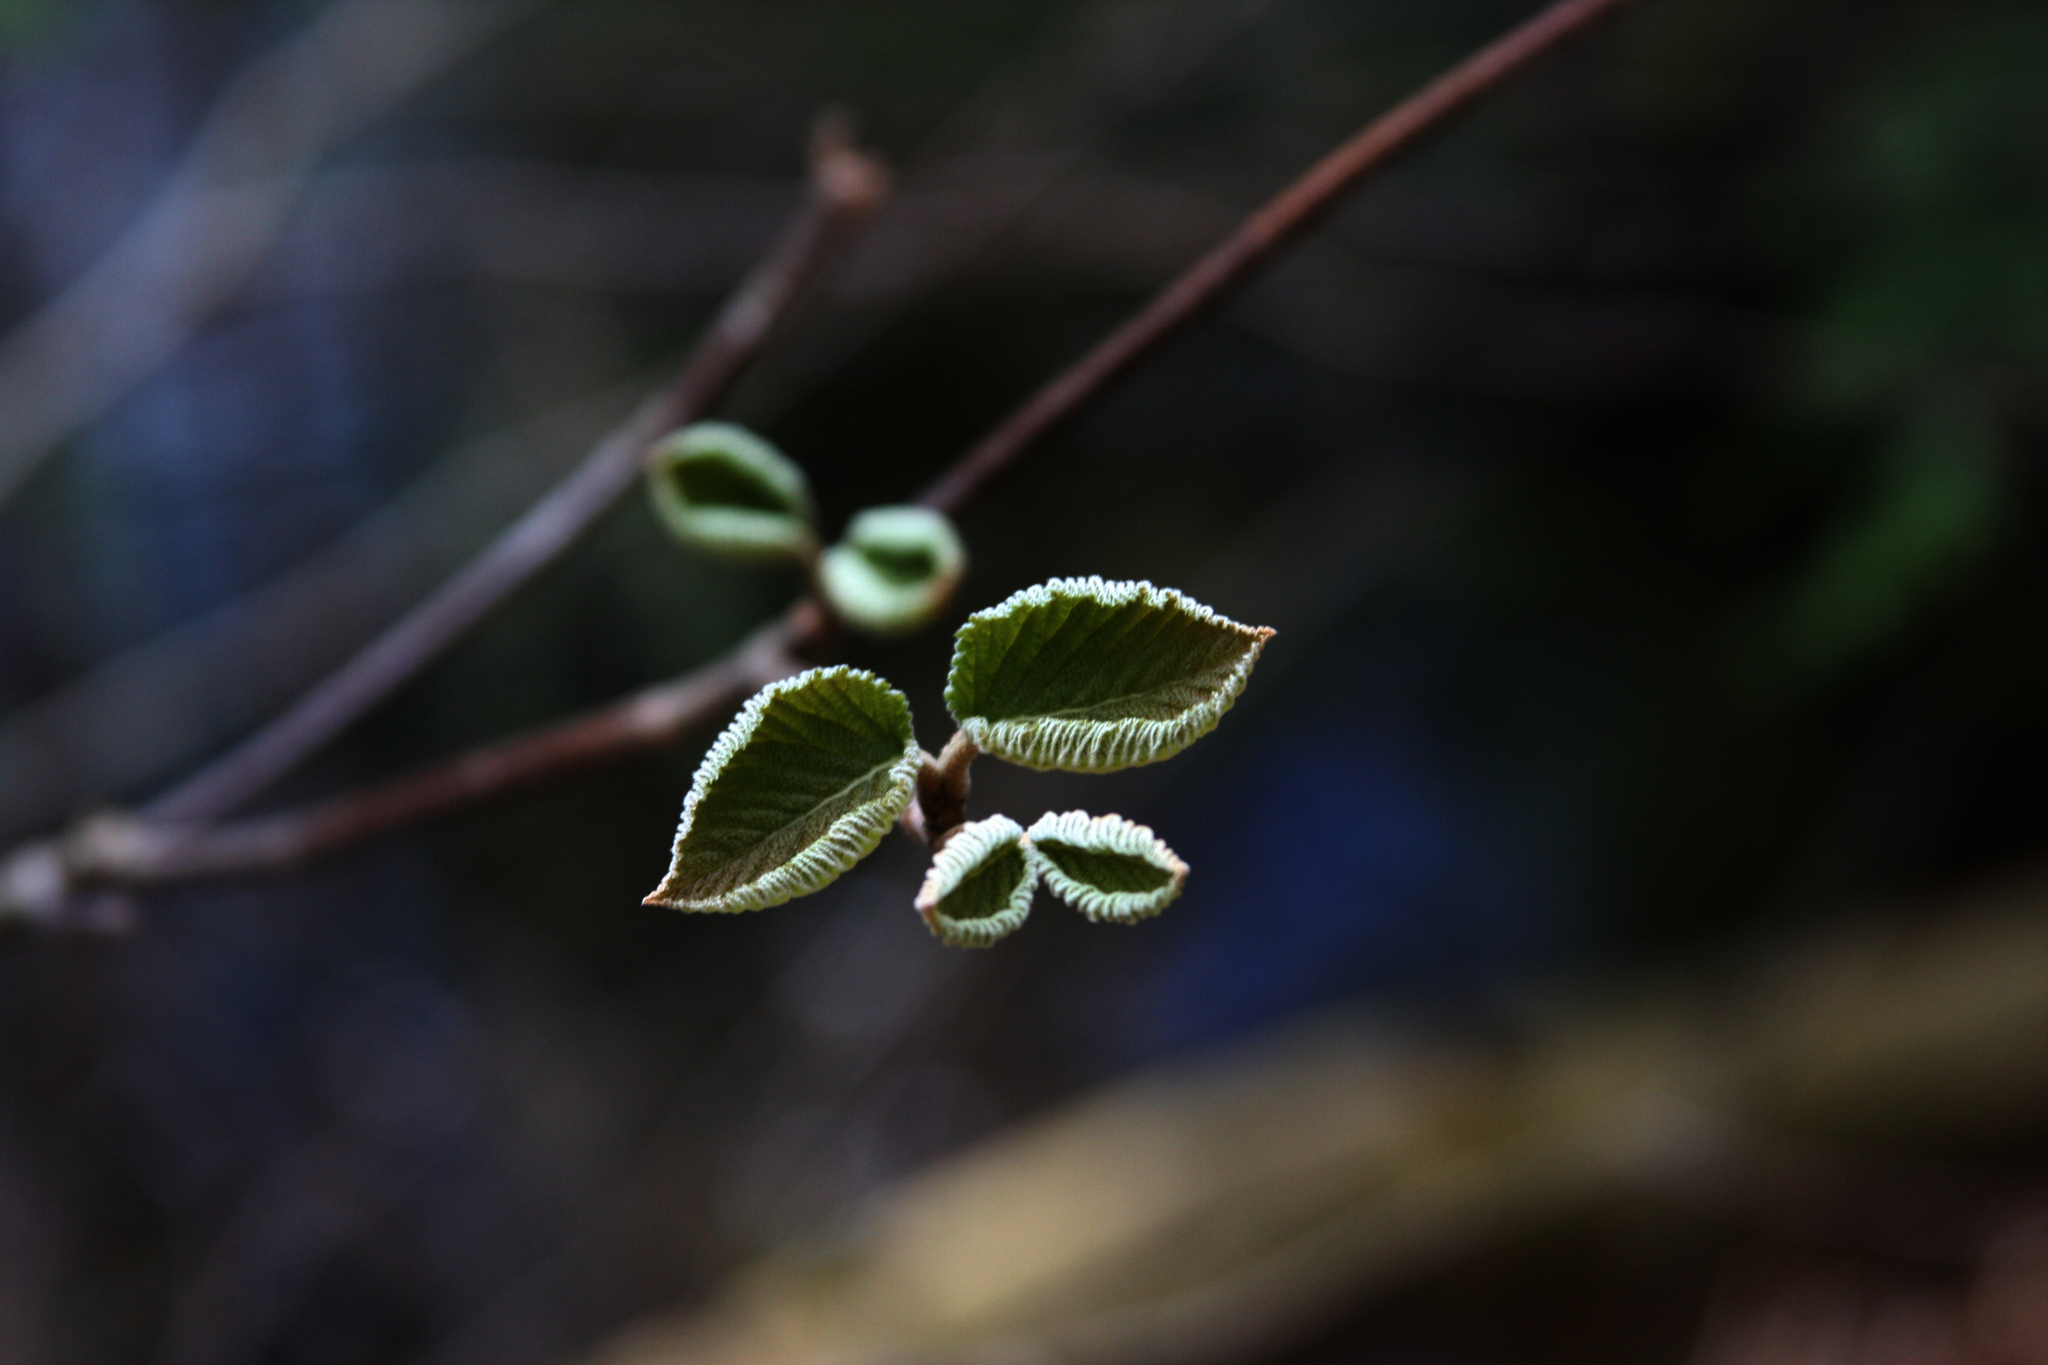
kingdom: Plantae
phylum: Tracheophyta
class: Magnoliopsida
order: Dipsacales
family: Viburnaceae
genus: Viburnum
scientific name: Viburnum lantanoides
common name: Hobblebush
